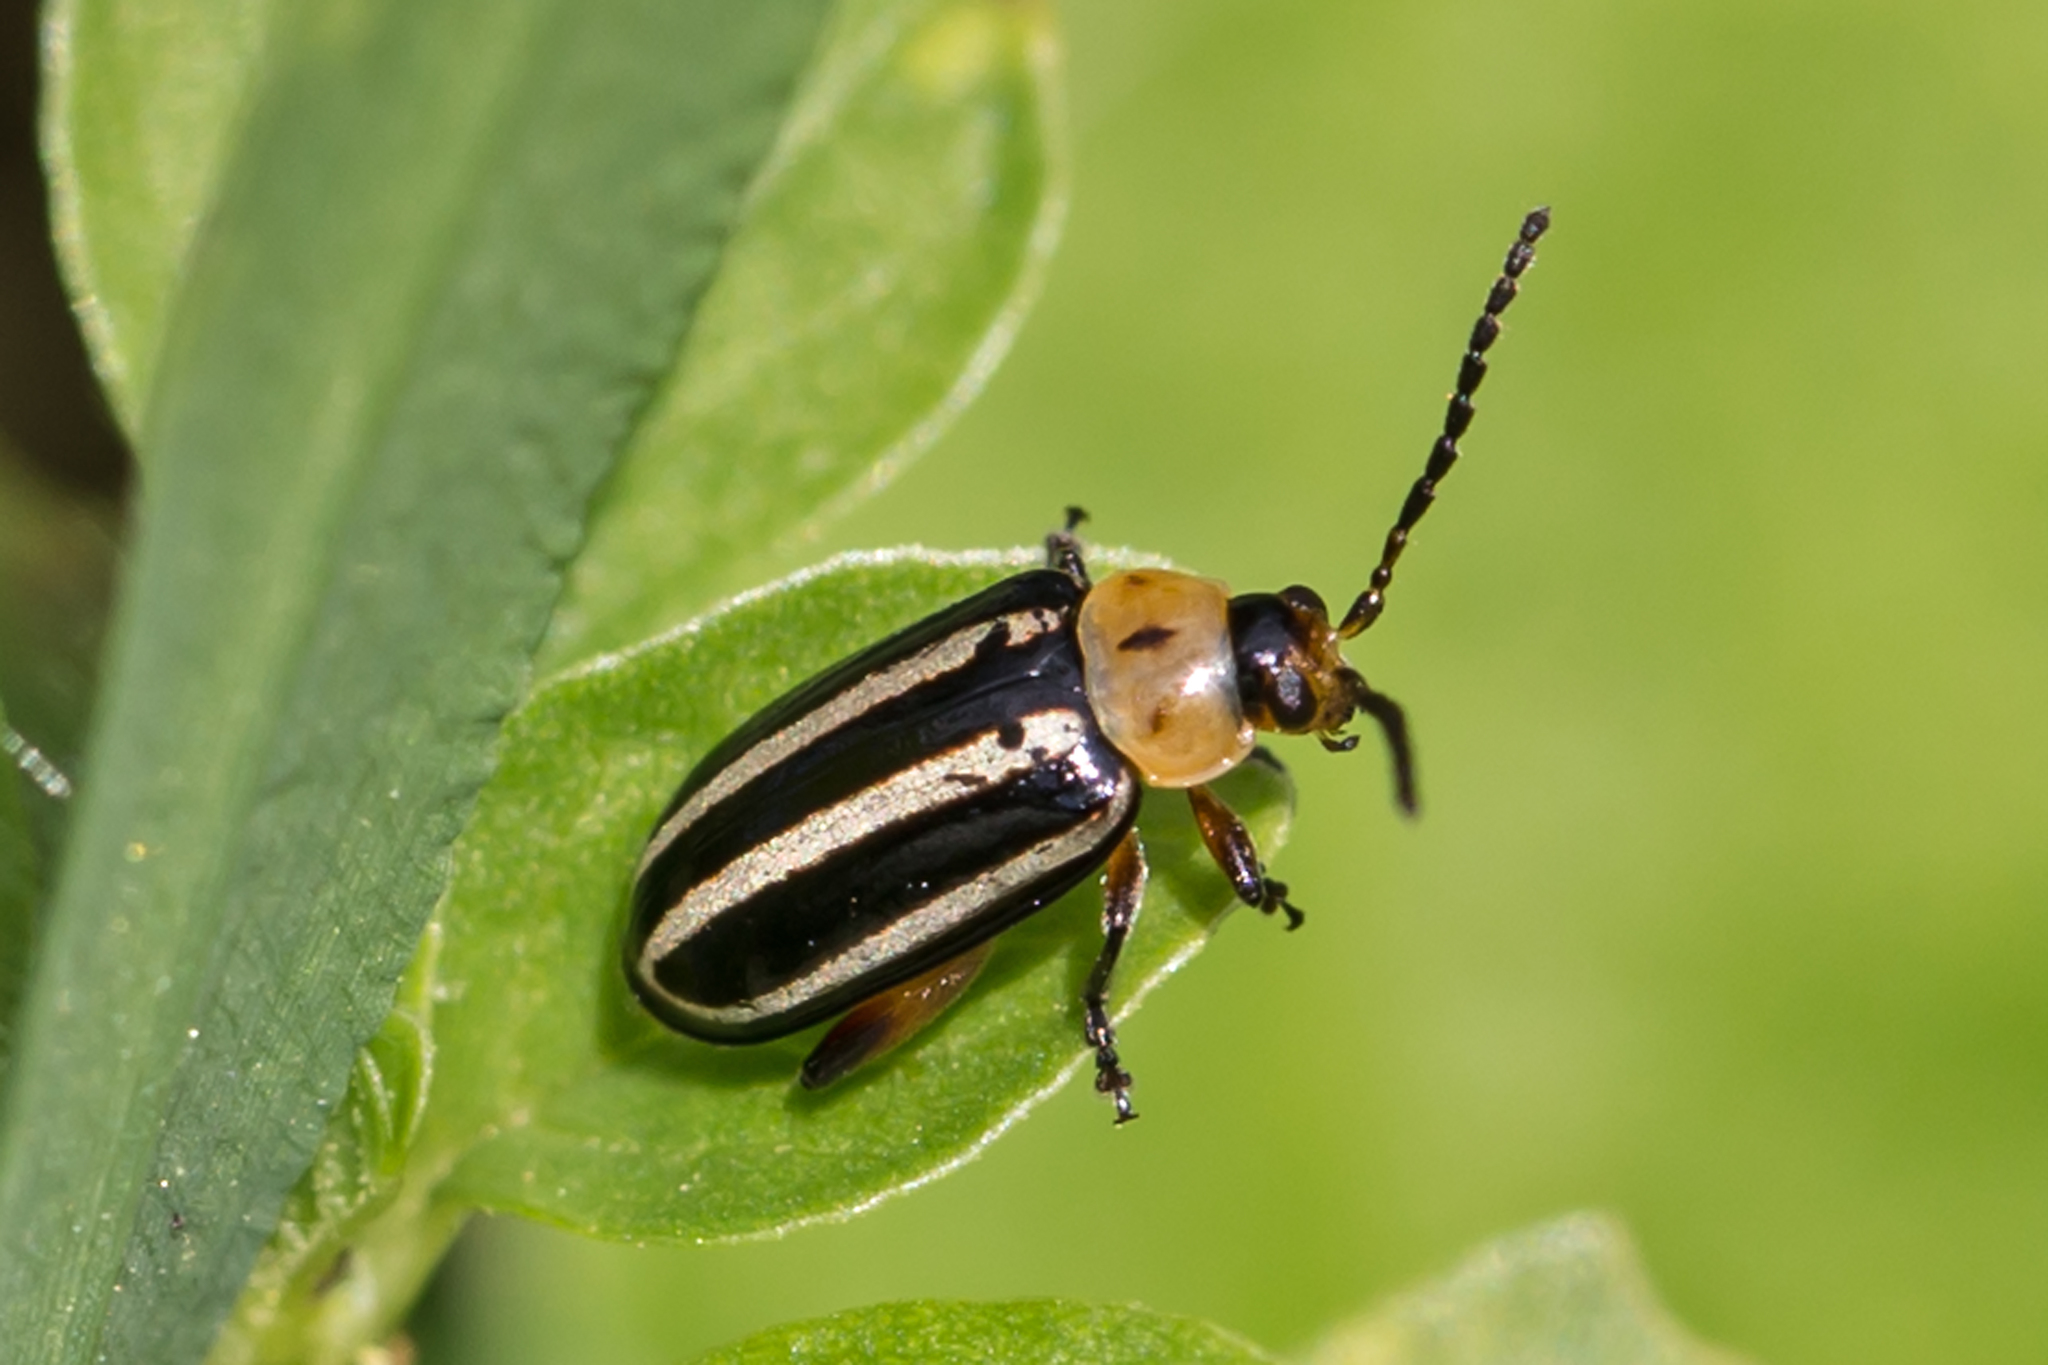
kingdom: Animalia
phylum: Arthropoda
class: Insecta
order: Coleoptera
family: Chrysomelidae
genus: Disonycha
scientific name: Disonycha glabrata
